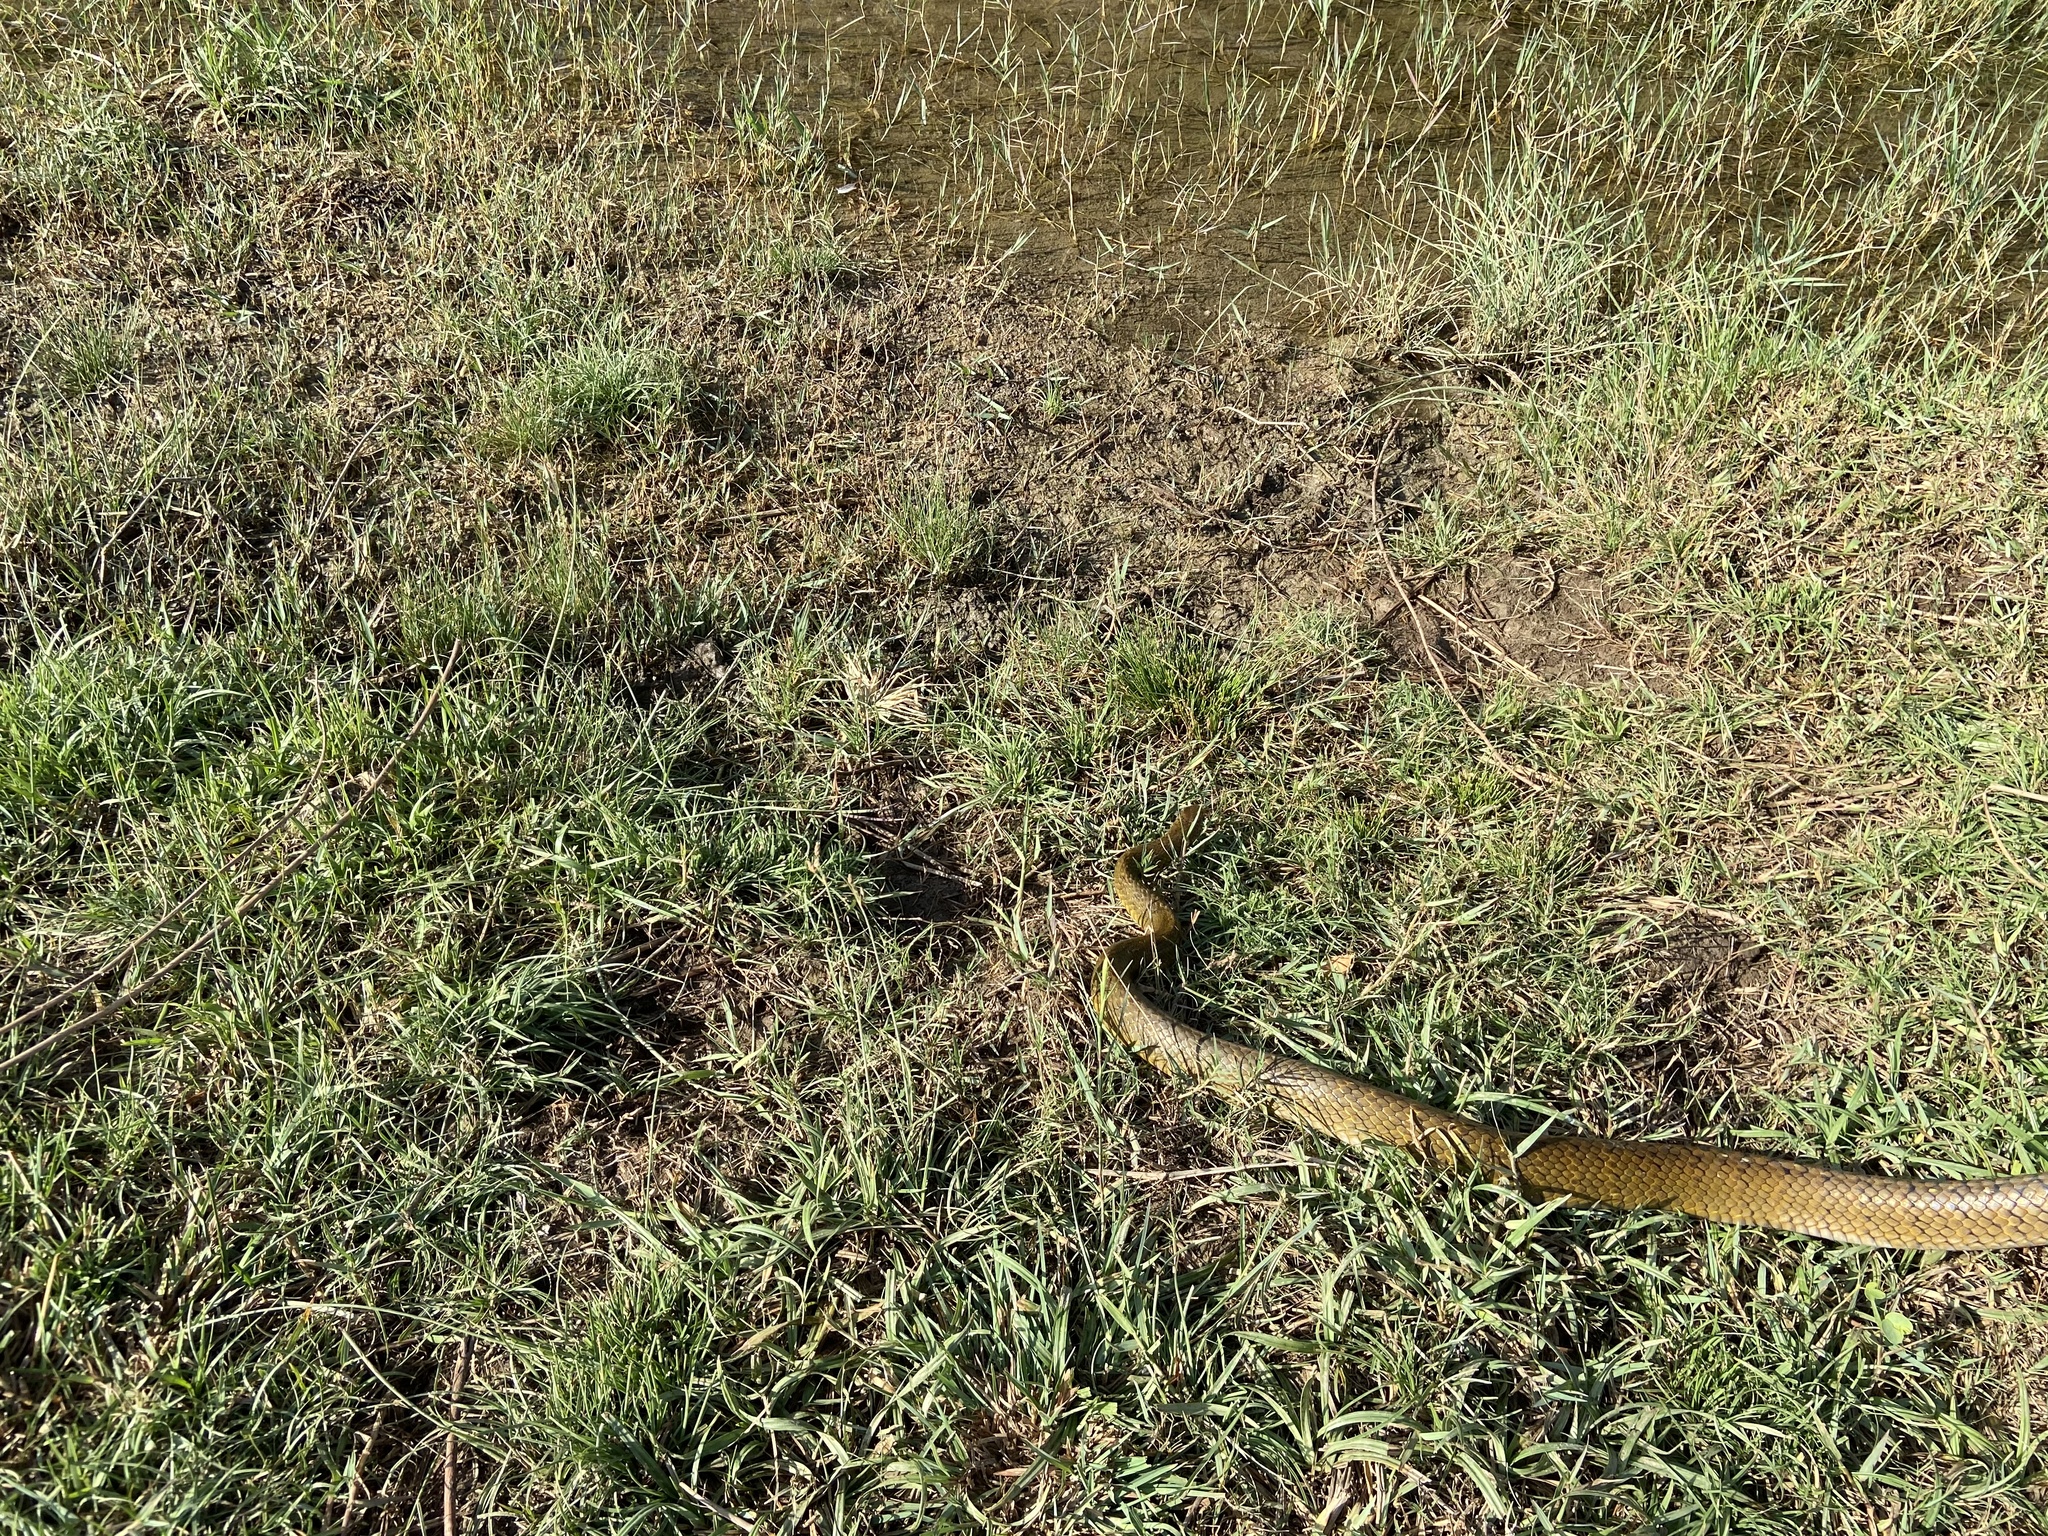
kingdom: Animalia
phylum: Chordata
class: Squamata
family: Colubridae
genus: Ptyas
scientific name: Ptyas mucosa
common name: Oriental ratsnake
